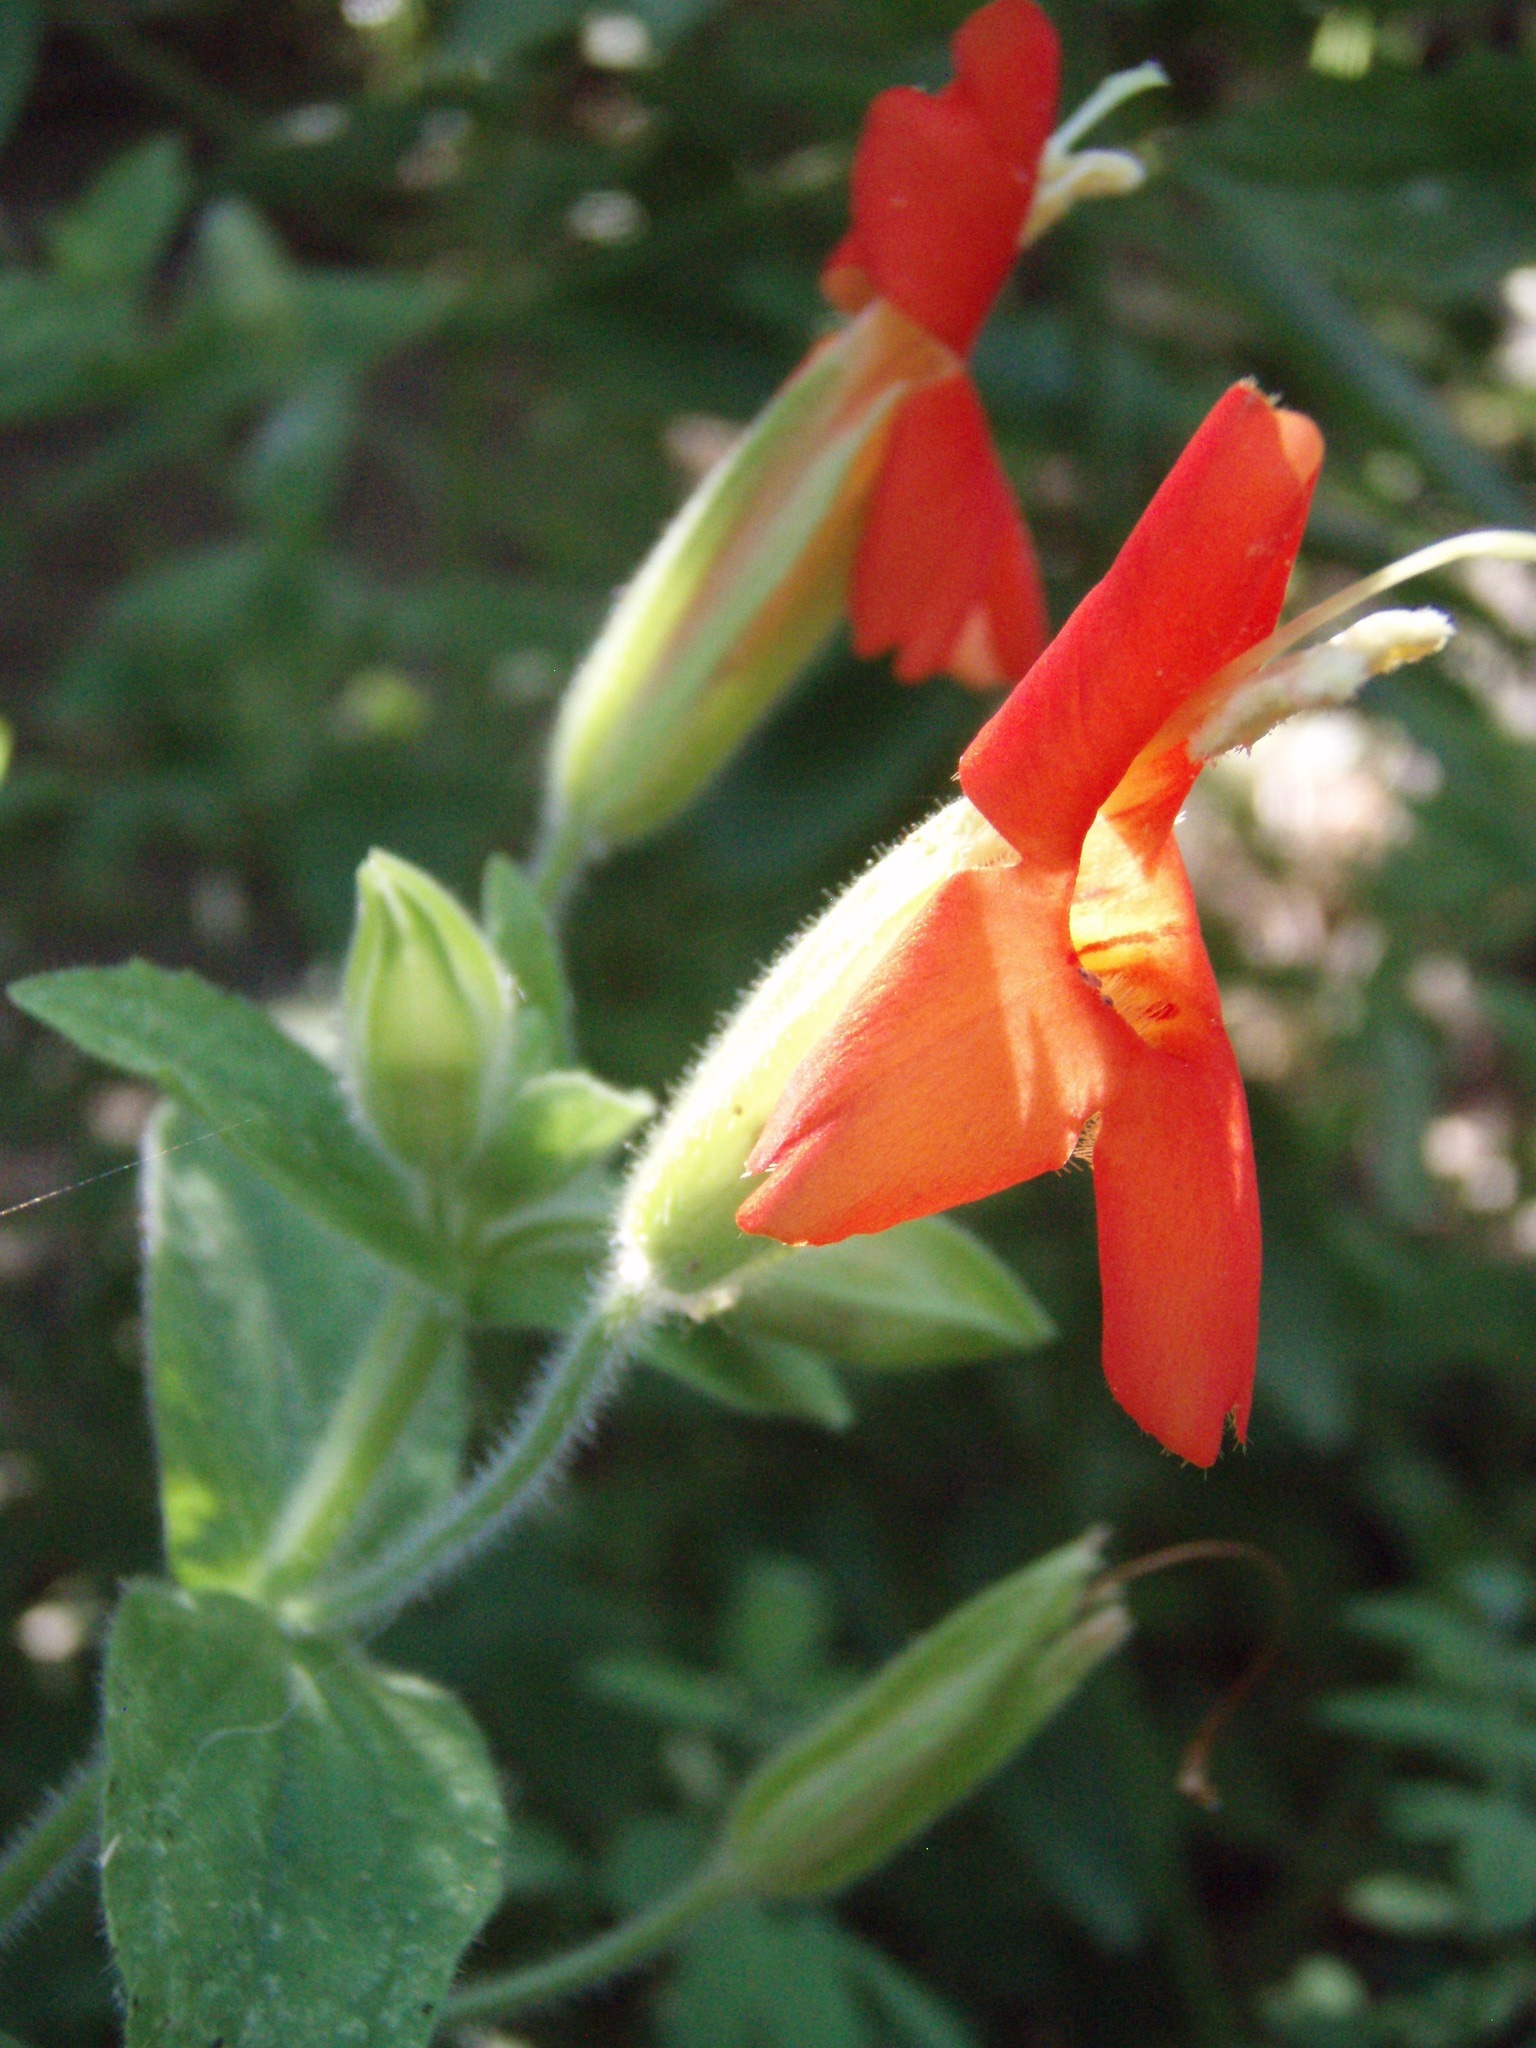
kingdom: Plantae
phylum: Tracheophyta
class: Magnoliopsida
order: Lamiales
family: Phrymaceae
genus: Erythranthe
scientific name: Erythranthe cardinalis
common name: Scarlet monkey-flower
